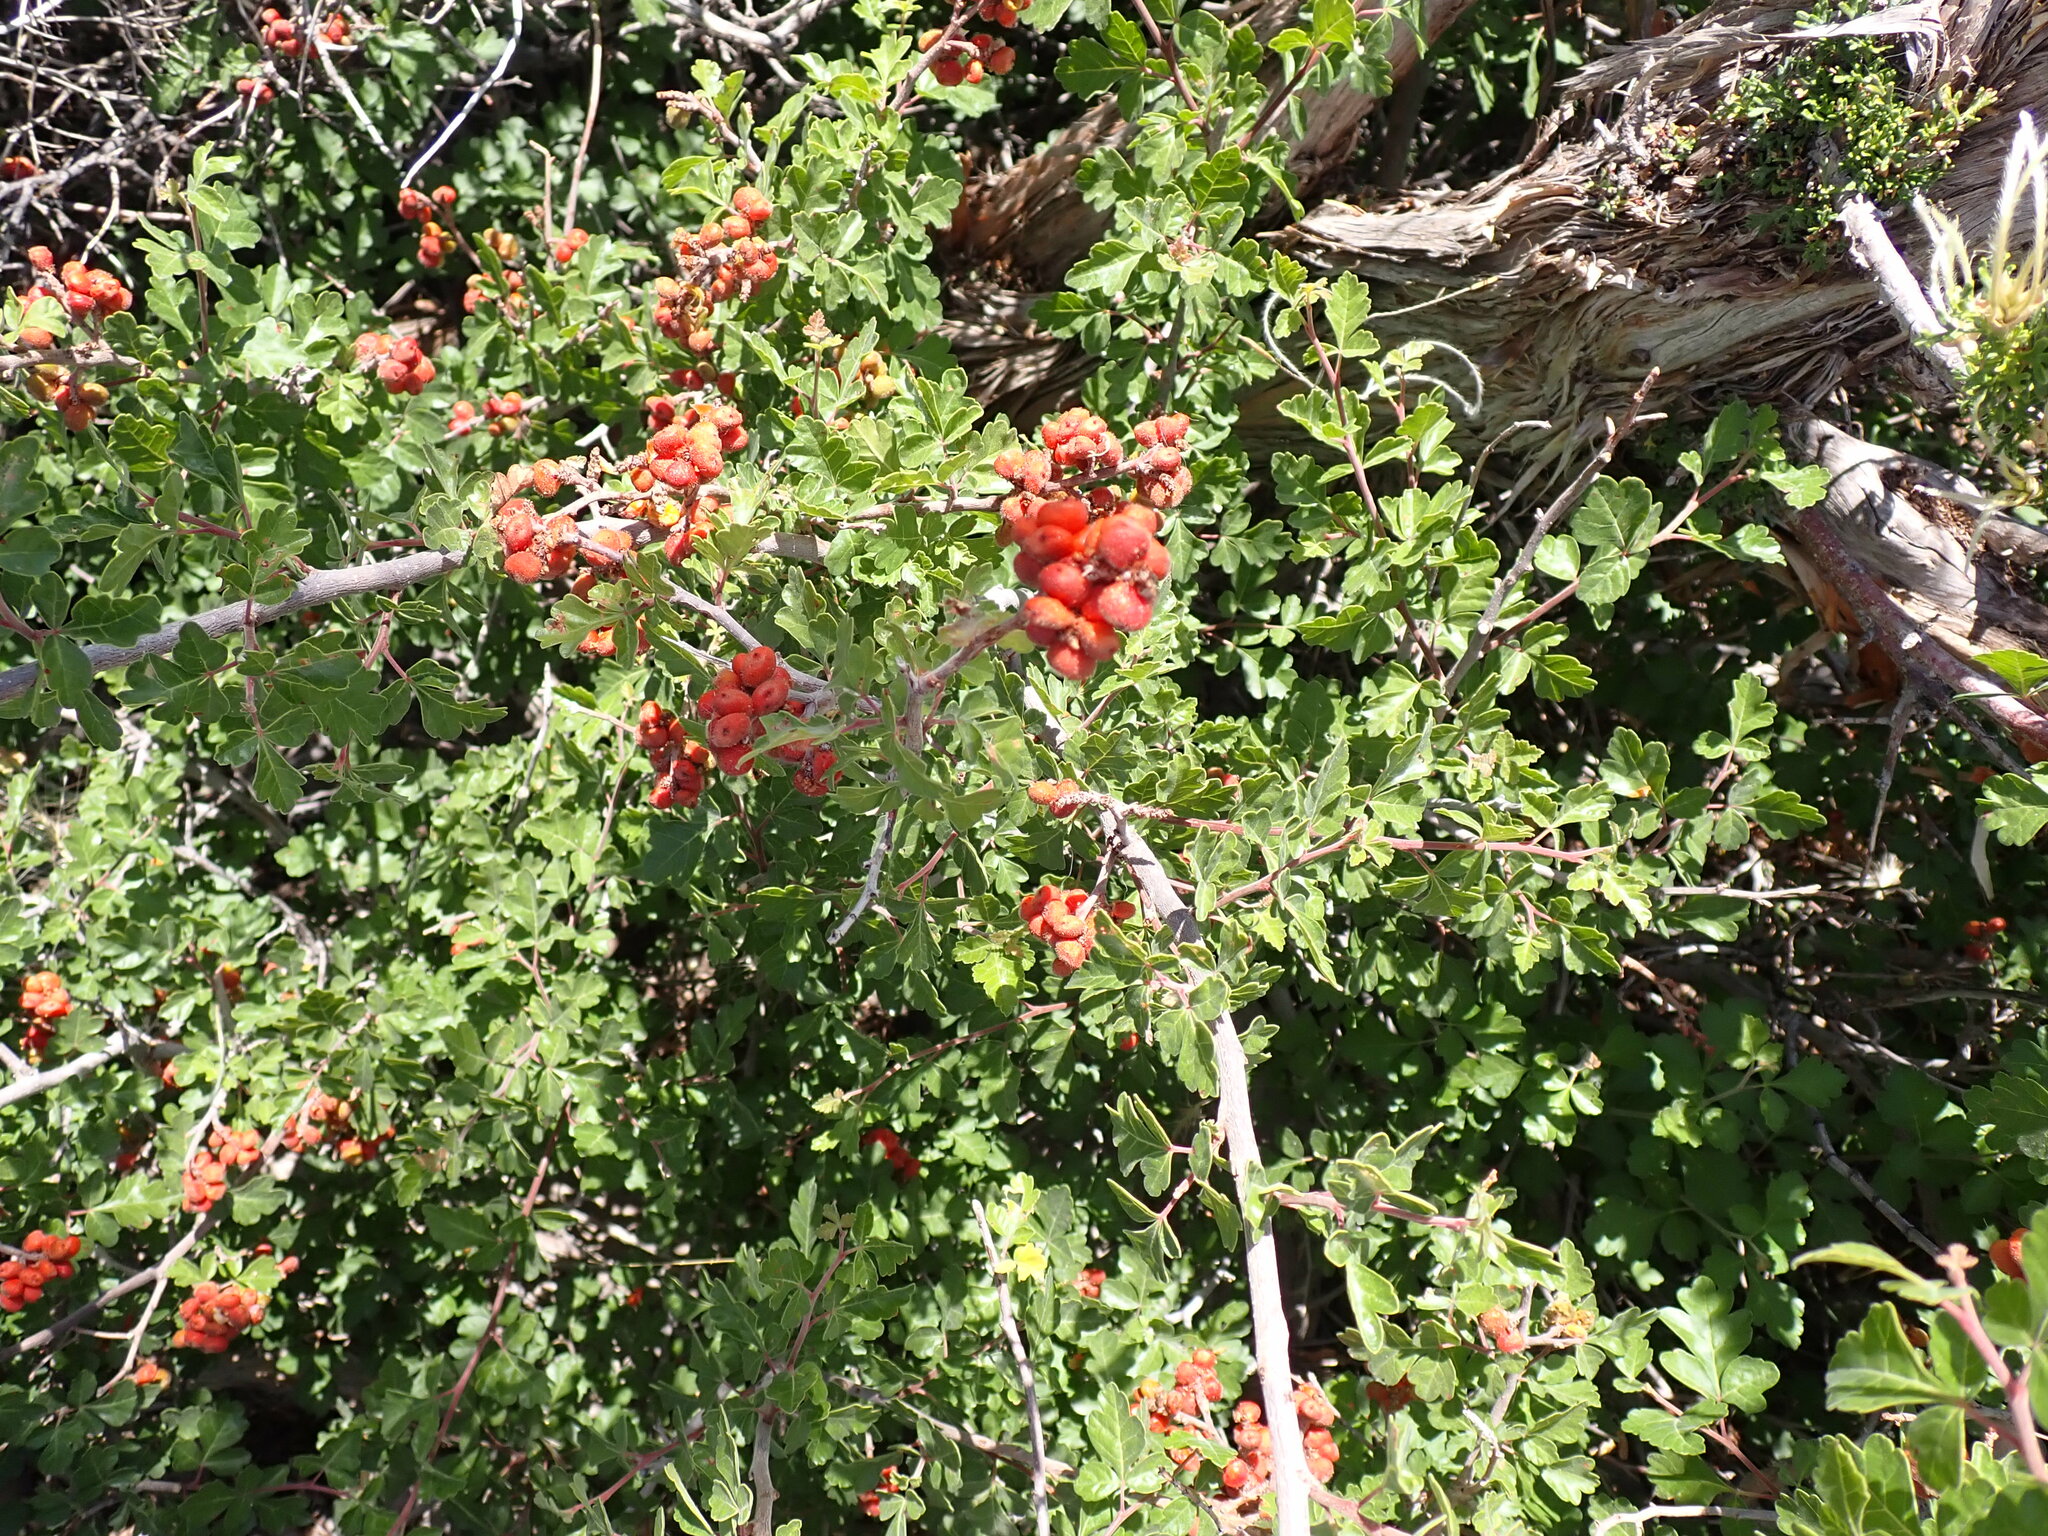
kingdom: Plantae
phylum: Tracheophyta
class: Magnoliopsida
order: Sapindales
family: Anacardiaceae
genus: Rhus
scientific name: Rhus trilobata
